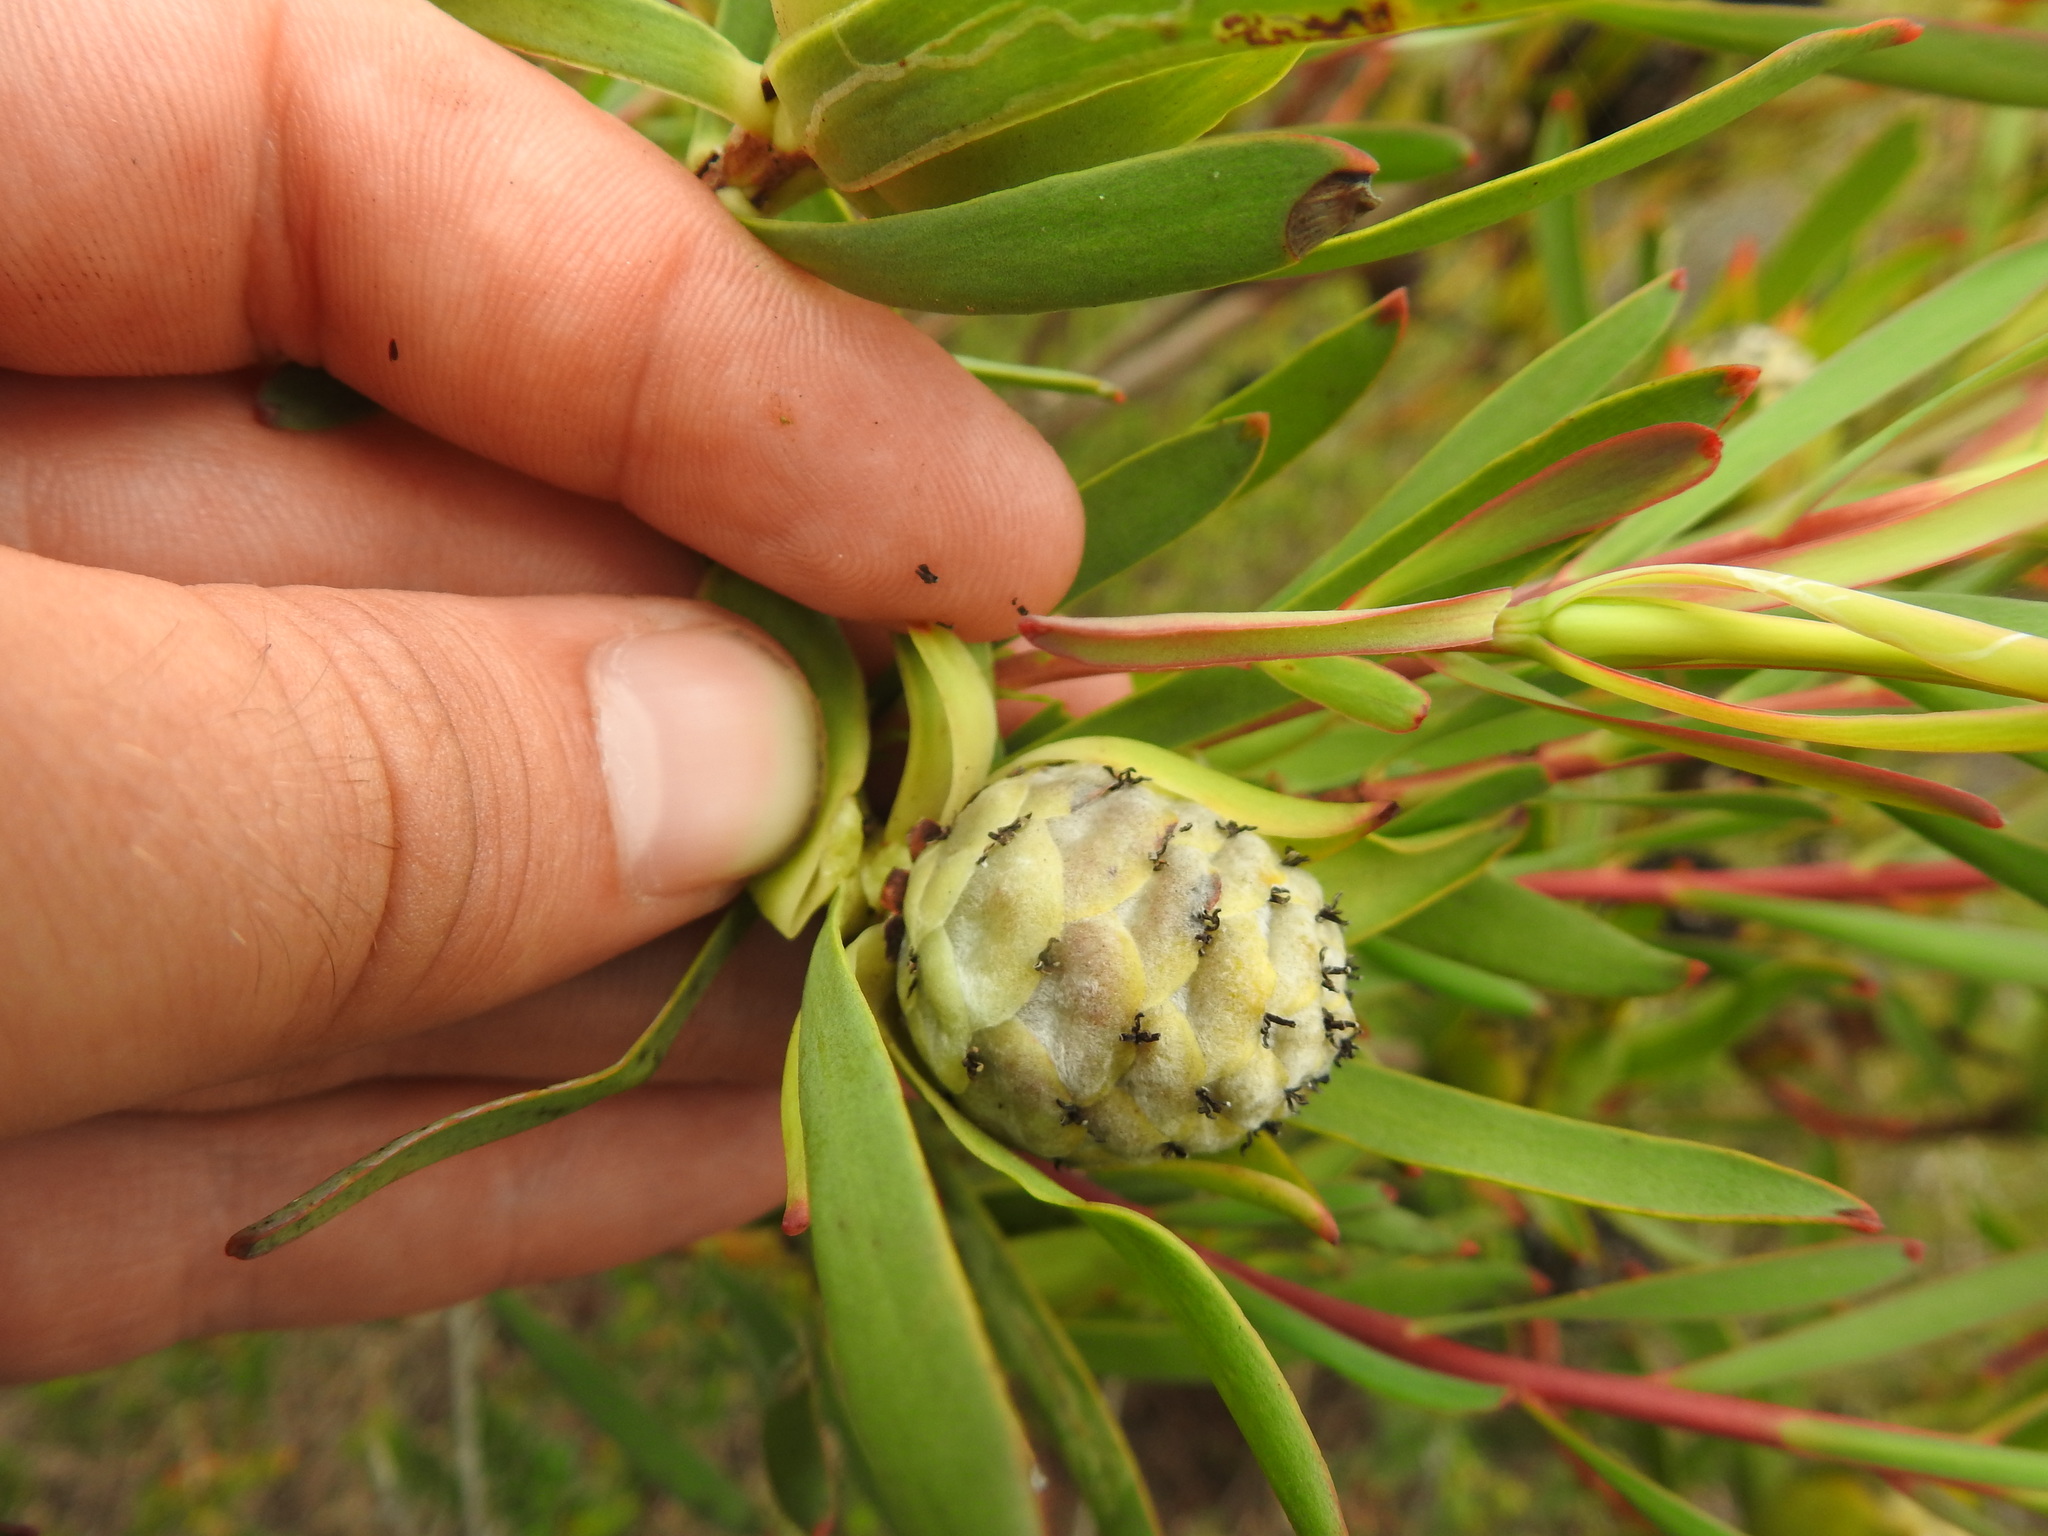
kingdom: Plantae
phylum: Tracheophyta
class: Magnoliopsida
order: Proteales
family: Proteaceae
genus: Leucadendron
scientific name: Leucadendron salignum
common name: Common sunshine conebush
